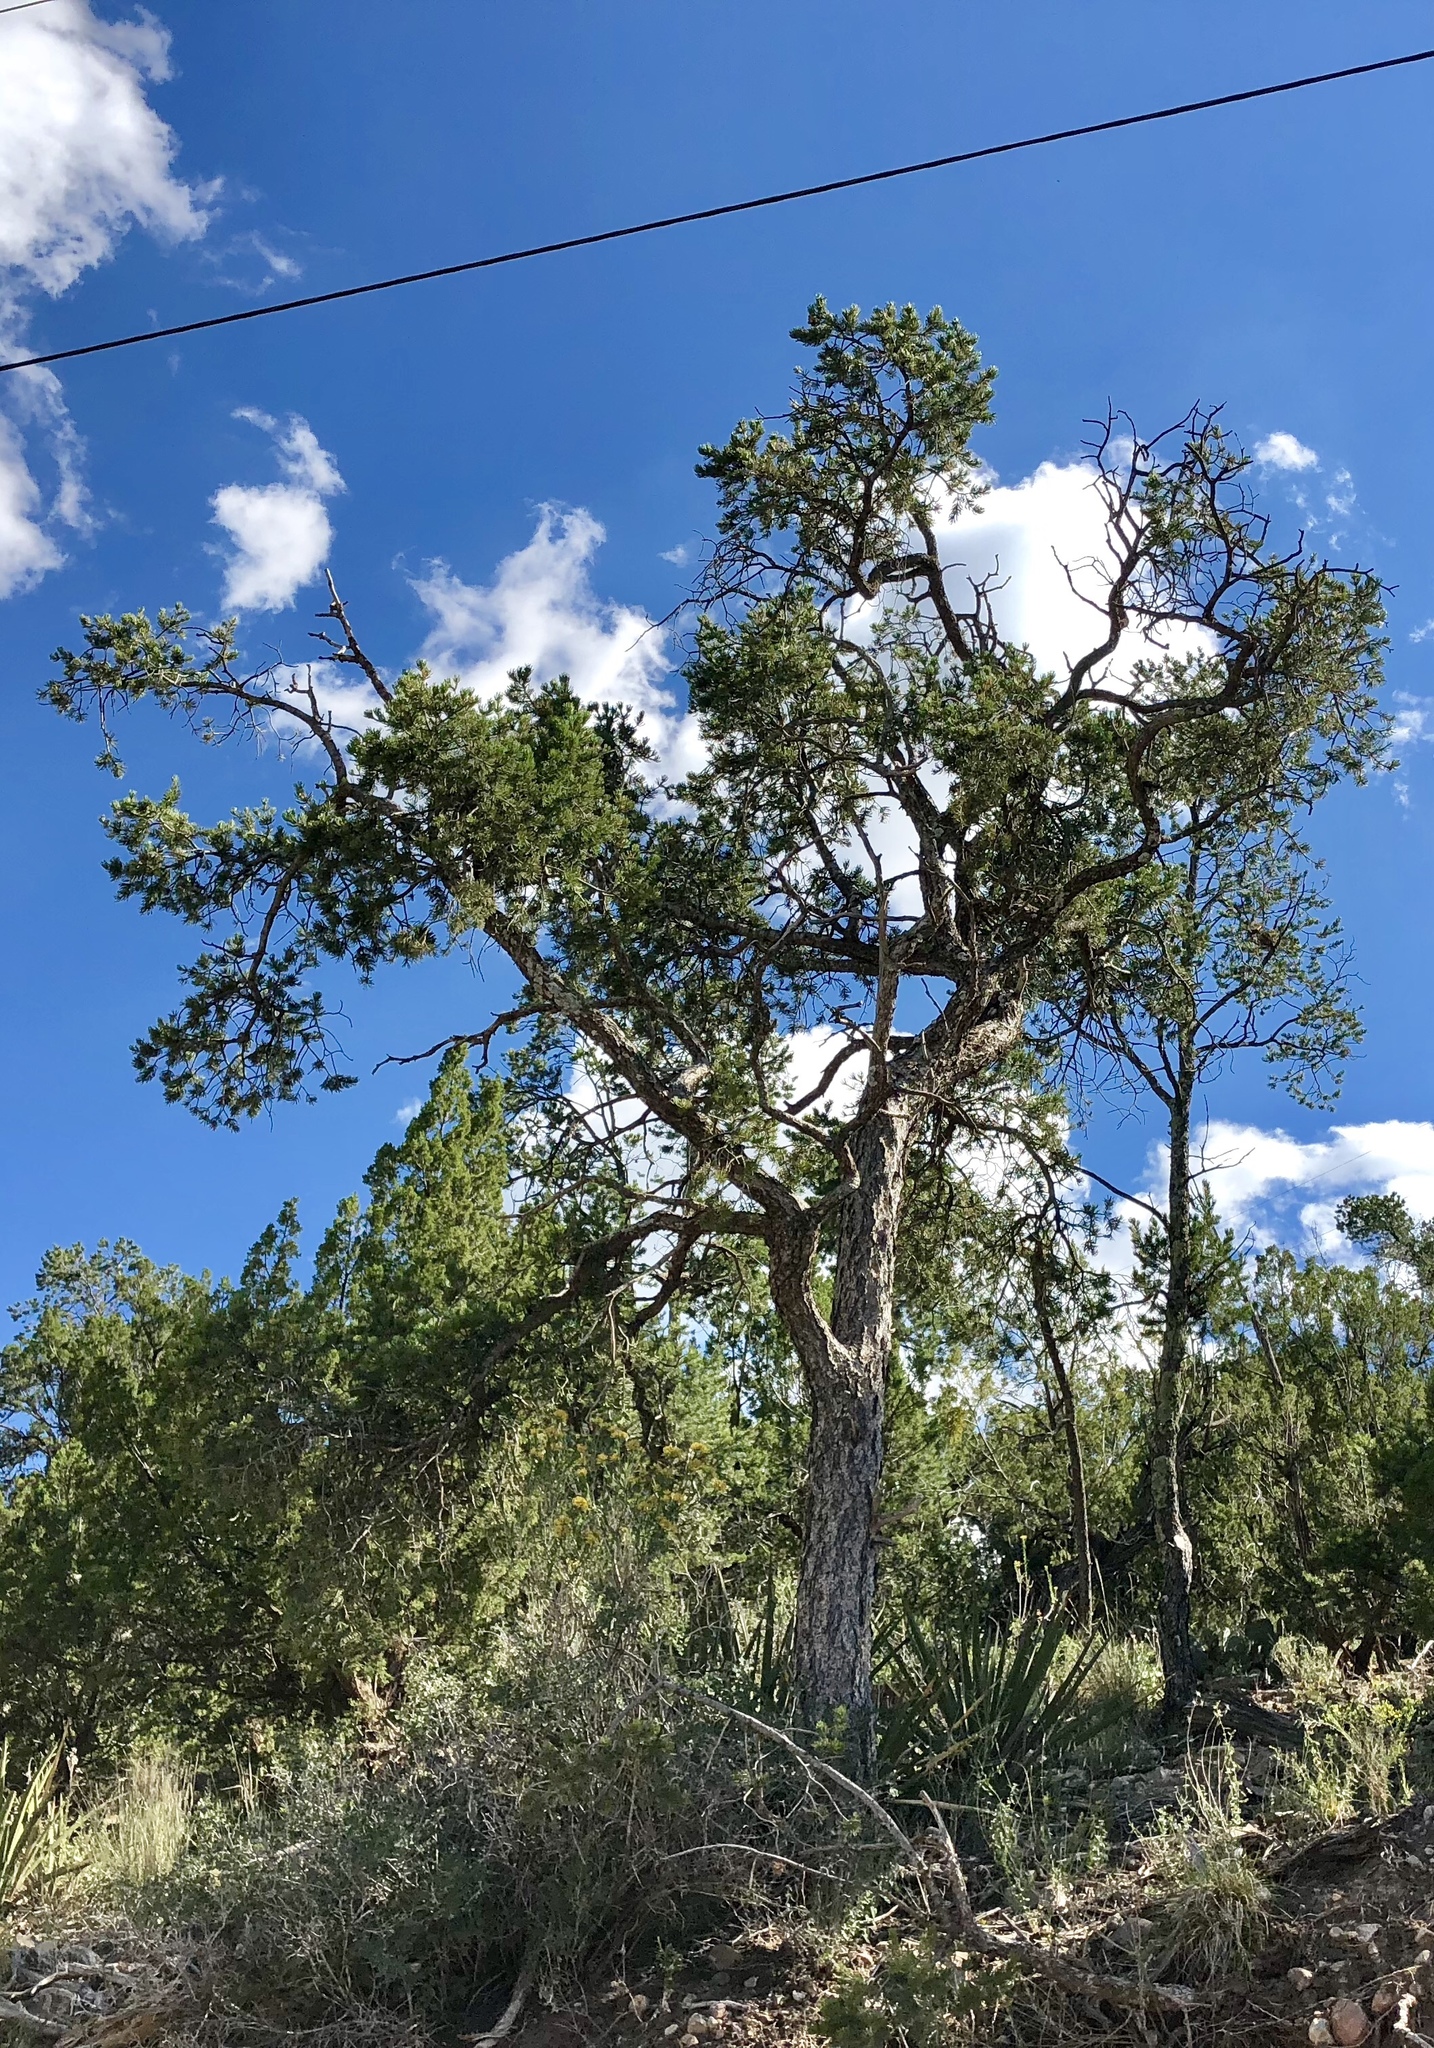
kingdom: Plantae
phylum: Tracheophyta
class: Pinopsida
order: Pinales
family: Pinaceae
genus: Pinus
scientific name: Pinus edulis
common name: Colorado pinyon
